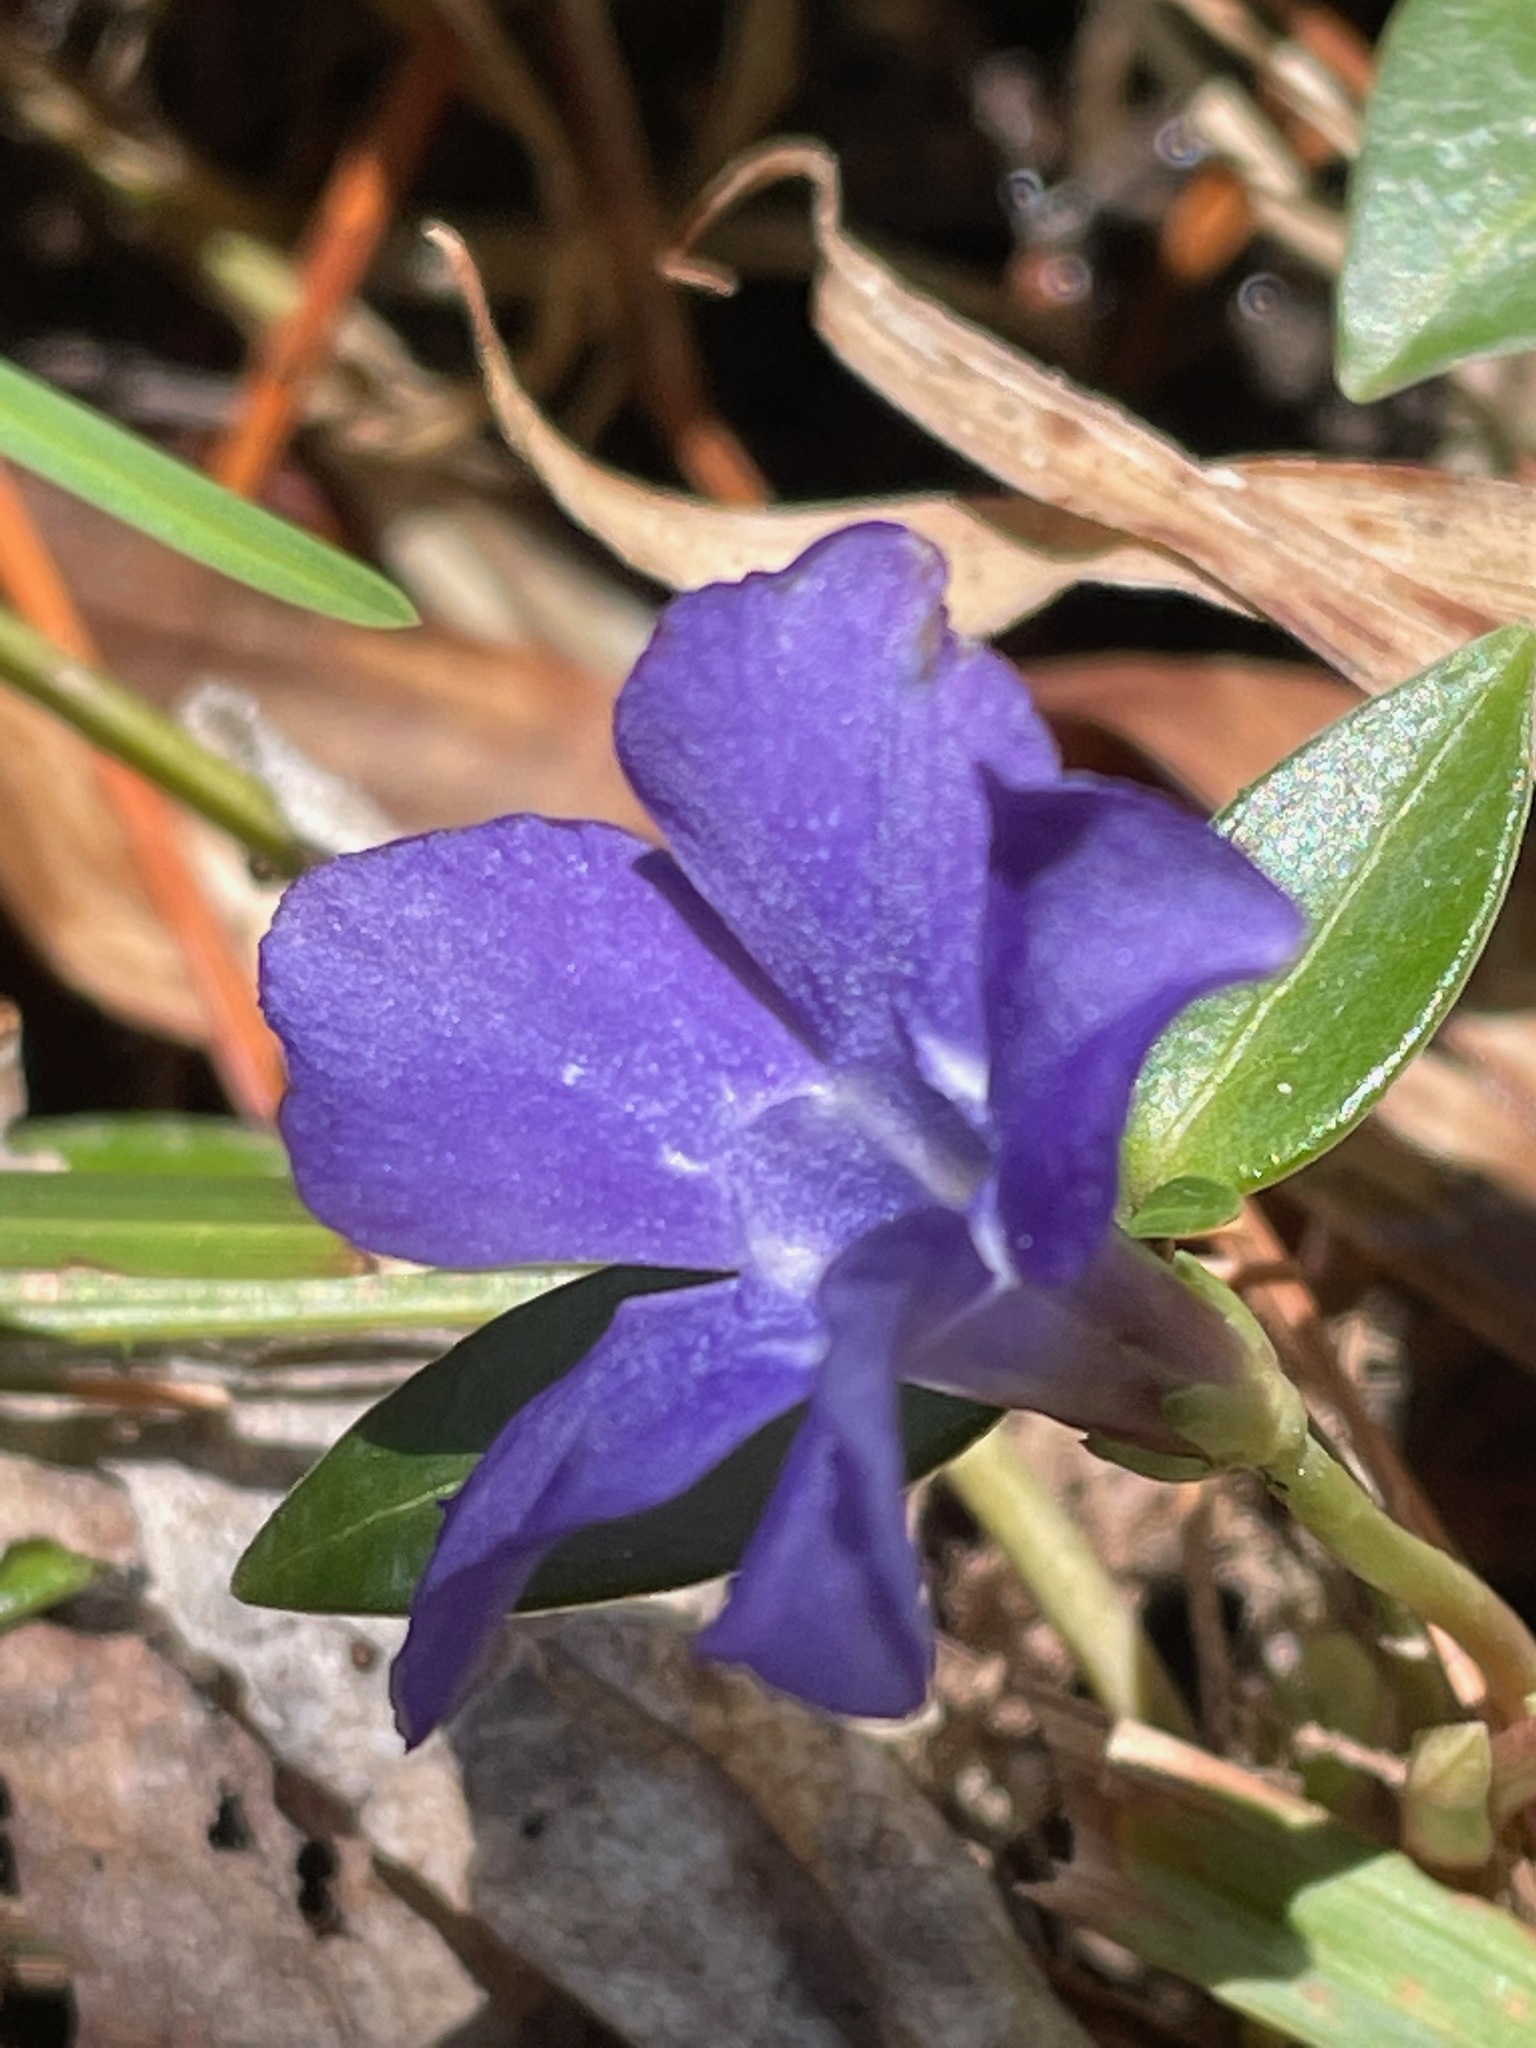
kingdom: Plantae
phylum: Tracheophyta
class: Magnoliopsida
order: Gentianales
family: Apocynaceae
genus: Vinca
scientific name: Vinca minor
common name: Lesser periwinkle
